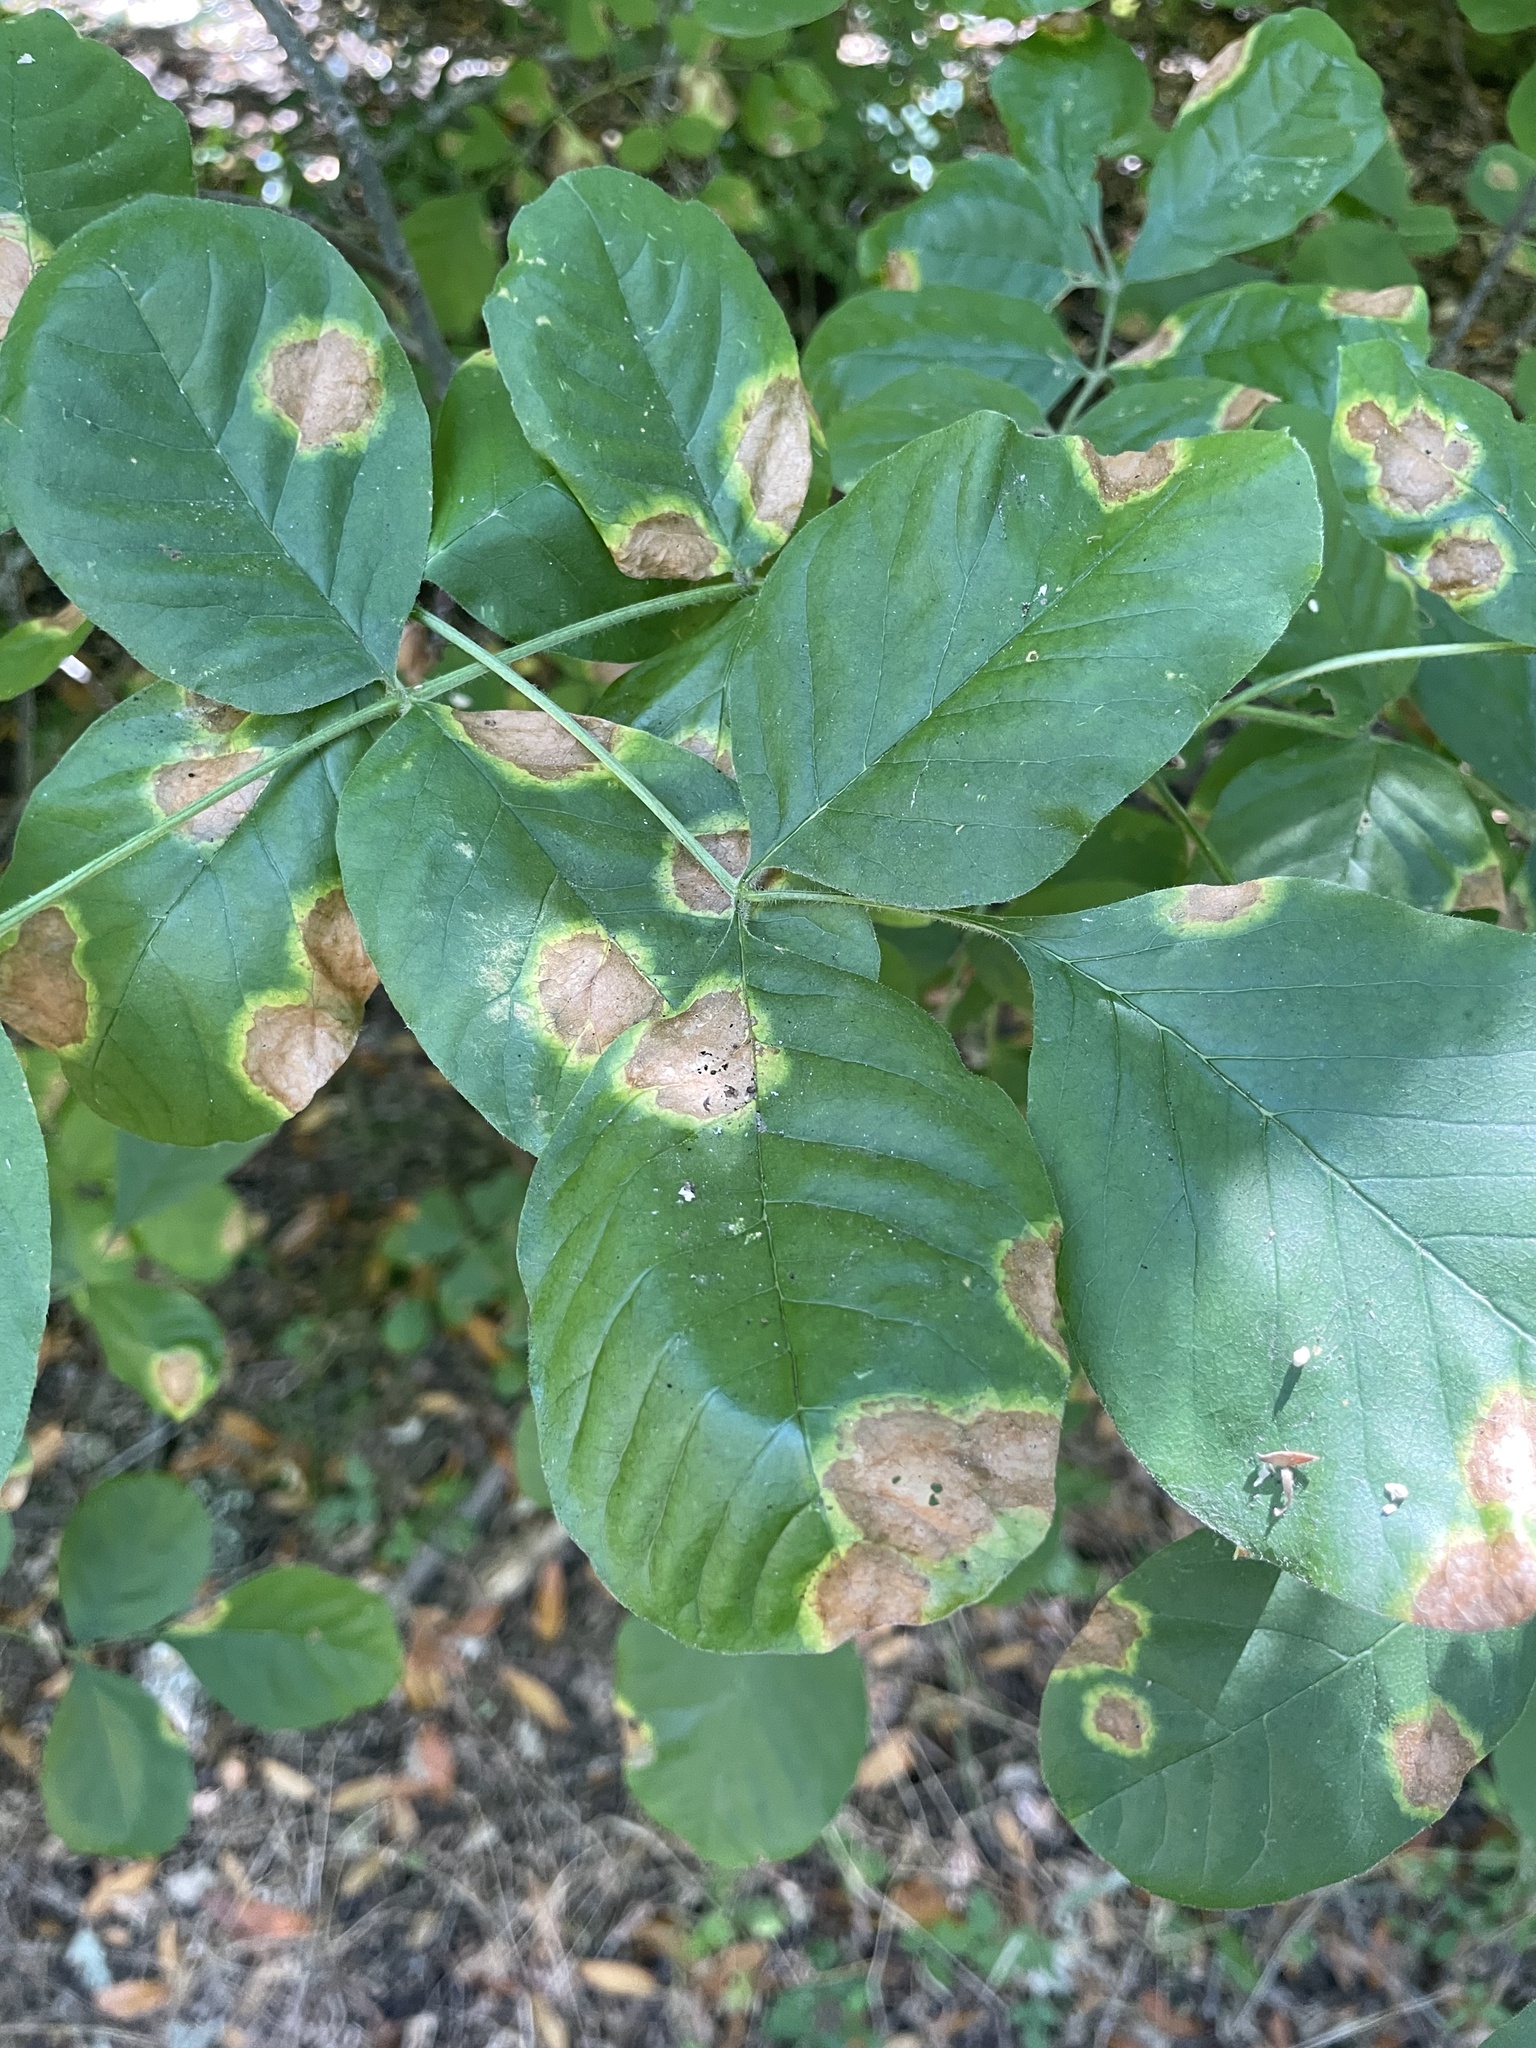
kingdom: Plantae
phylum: Tracheophyta
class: Magnoliopsida
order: Lamiales
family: Oleaceae
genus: Fraxinus
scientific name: Fraxinus latifolia
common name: Oregon ash
